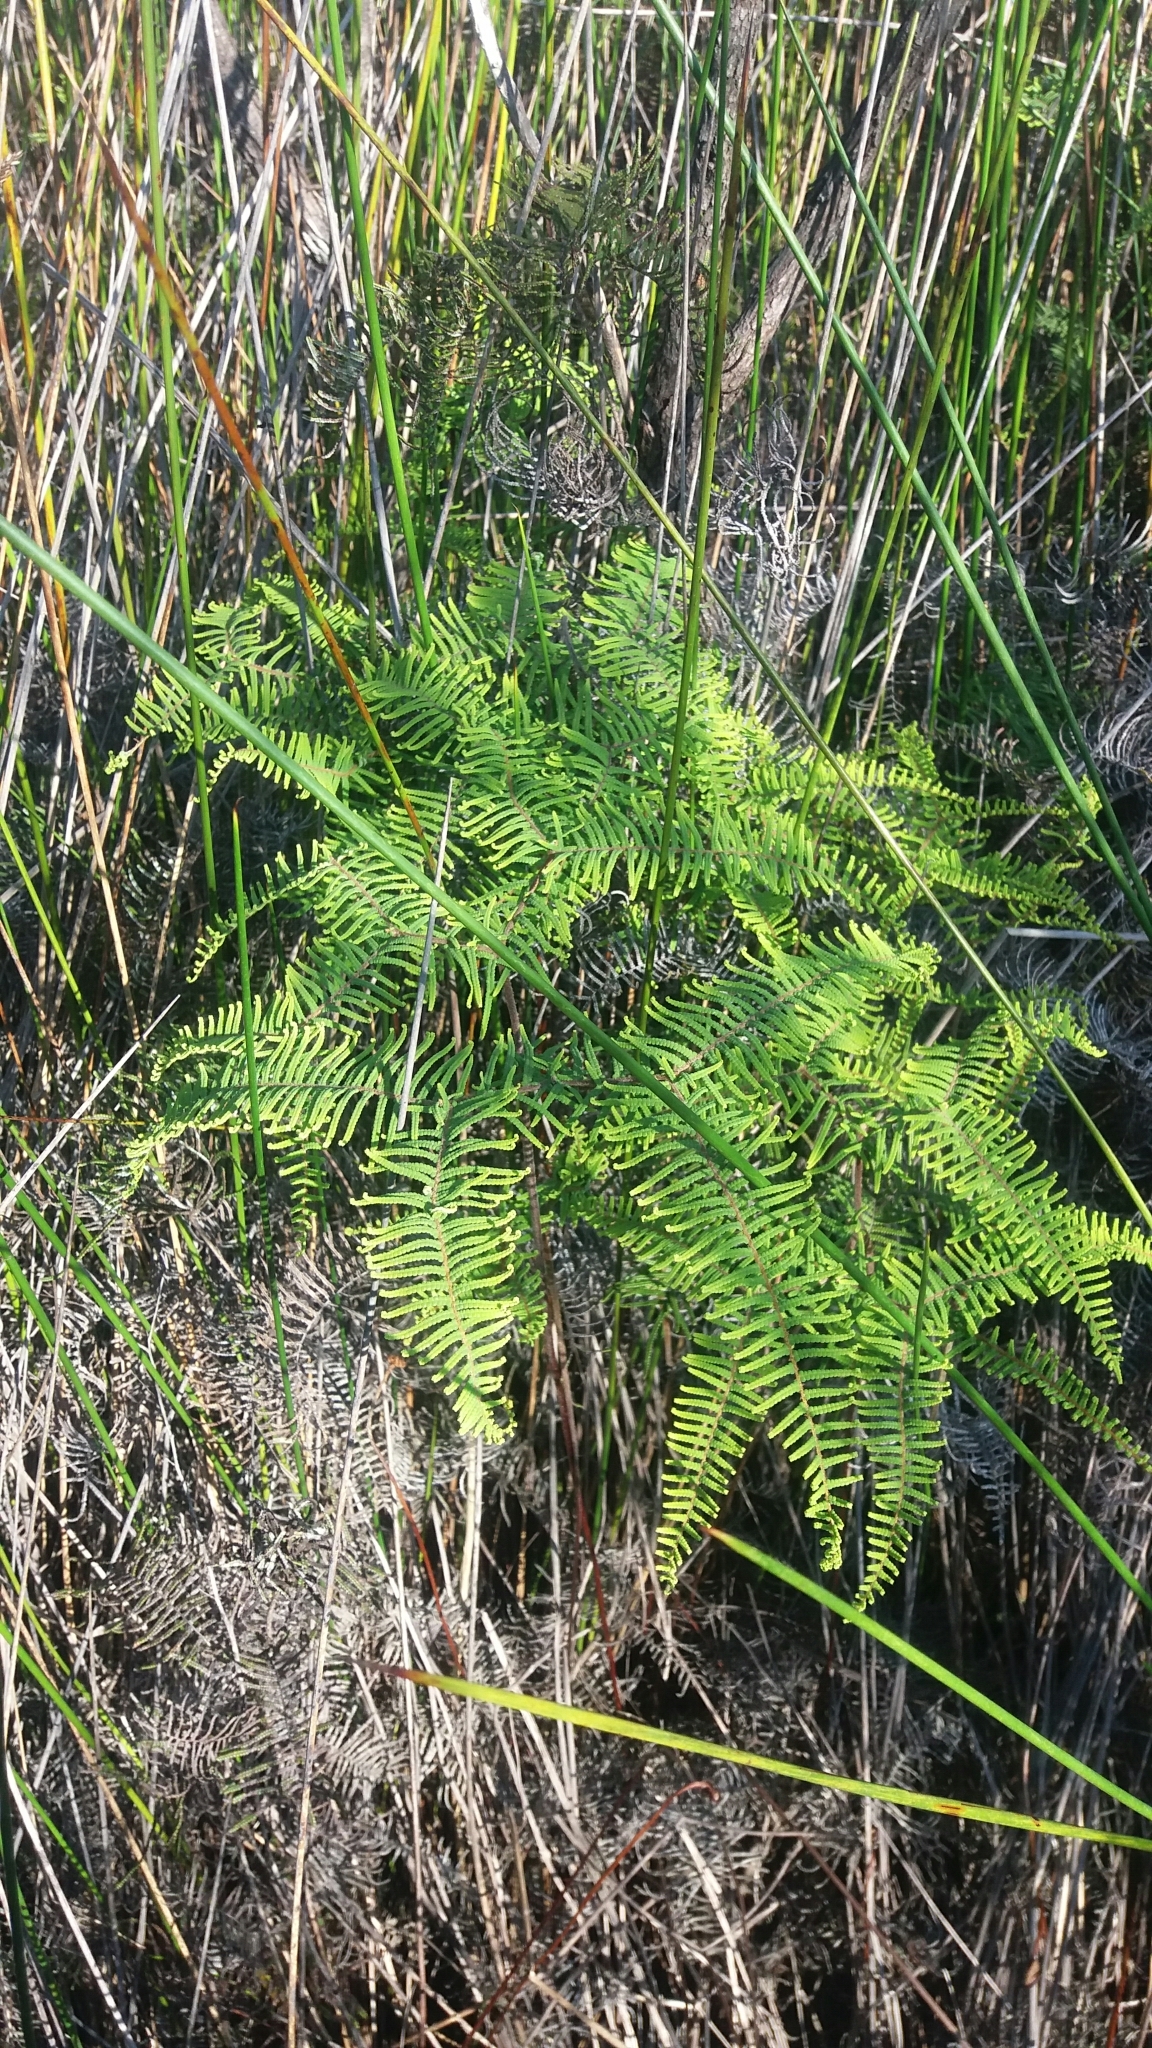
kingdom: Plantae
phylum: Tracheophyta
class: Polypodiopsida
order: Gleicheniales
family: Gleicheniaceae
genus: Gleichenia
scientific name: Gleichenia dicarpa
